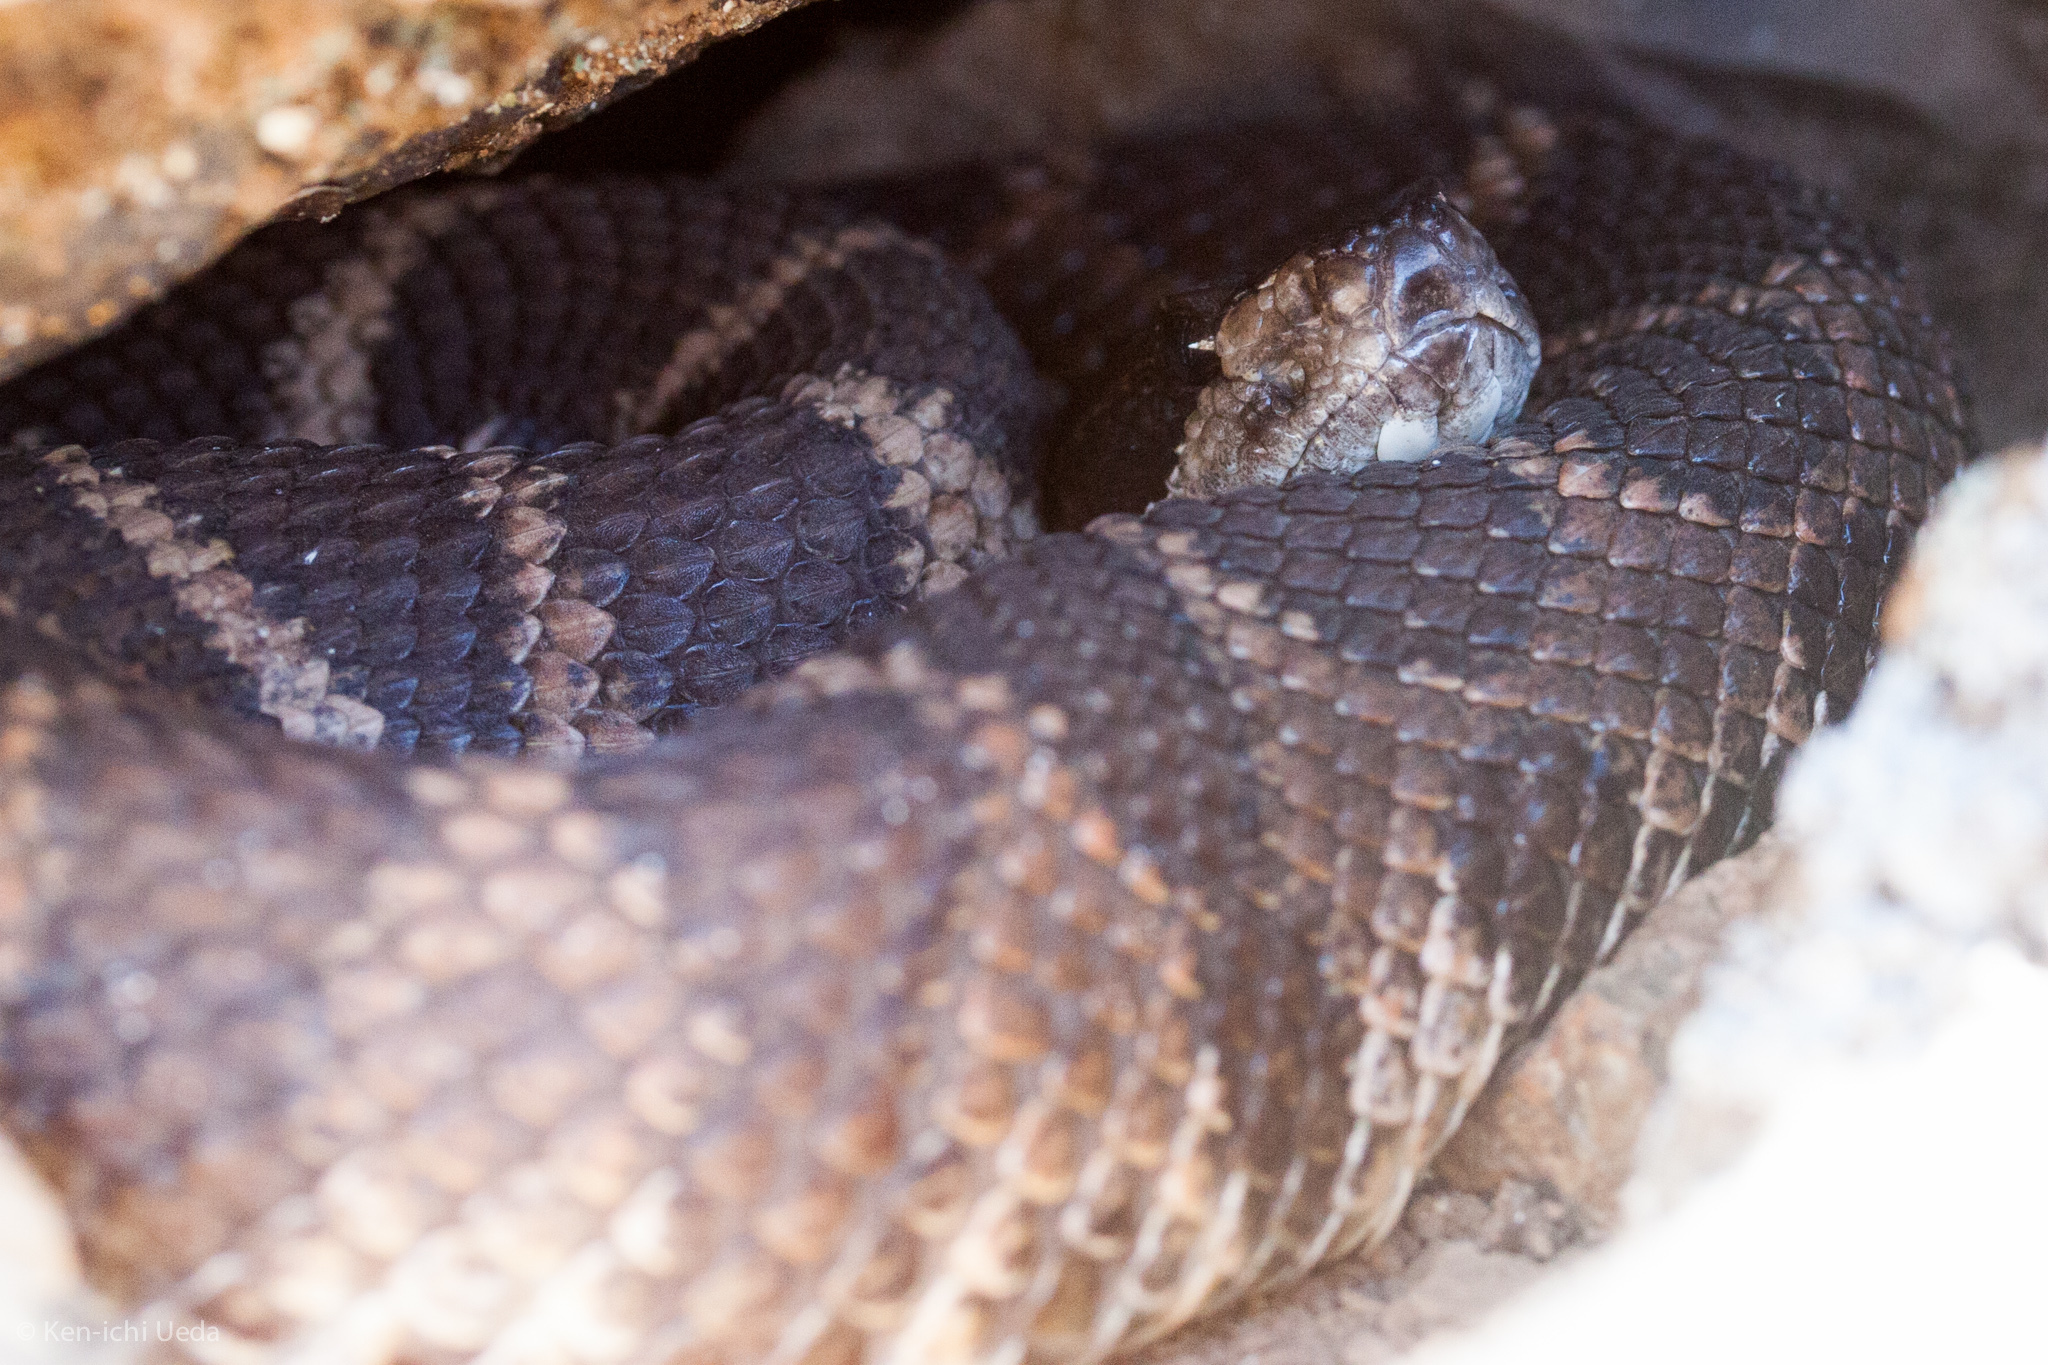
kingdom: Animalia
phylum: Chordata
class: Squamata
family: Viperidae
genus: Crotalus
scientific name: Crotalus oreganus
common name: Abyssus
